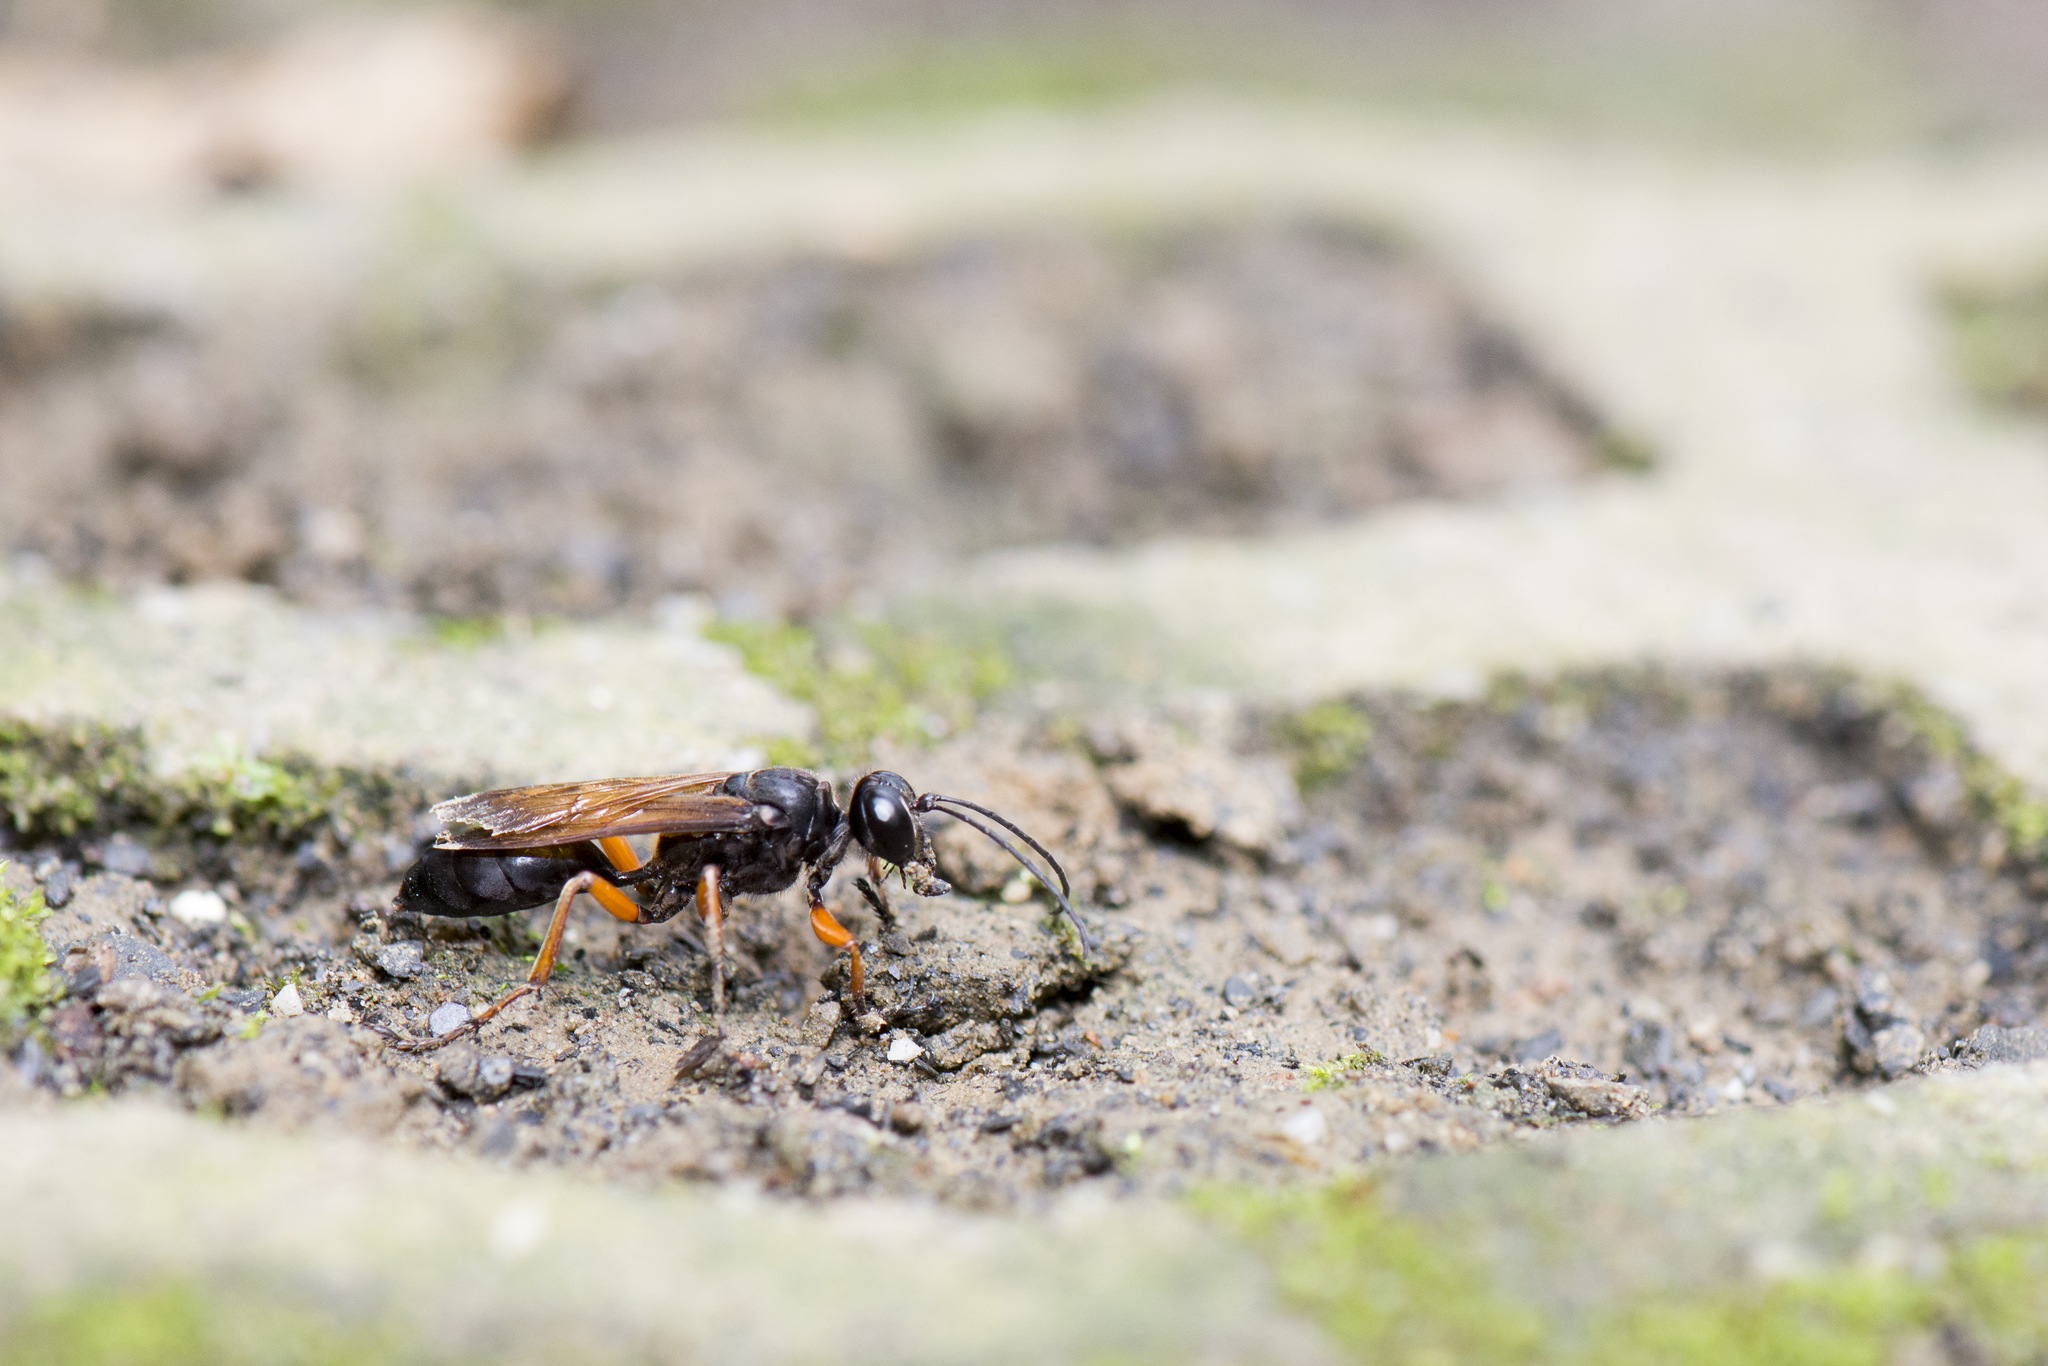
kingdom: Animalia
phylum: Arthropoda
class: Insecta
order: Hymenoptera
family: Sphecidae
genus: Sphex
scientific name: Sphex subtruncatus
